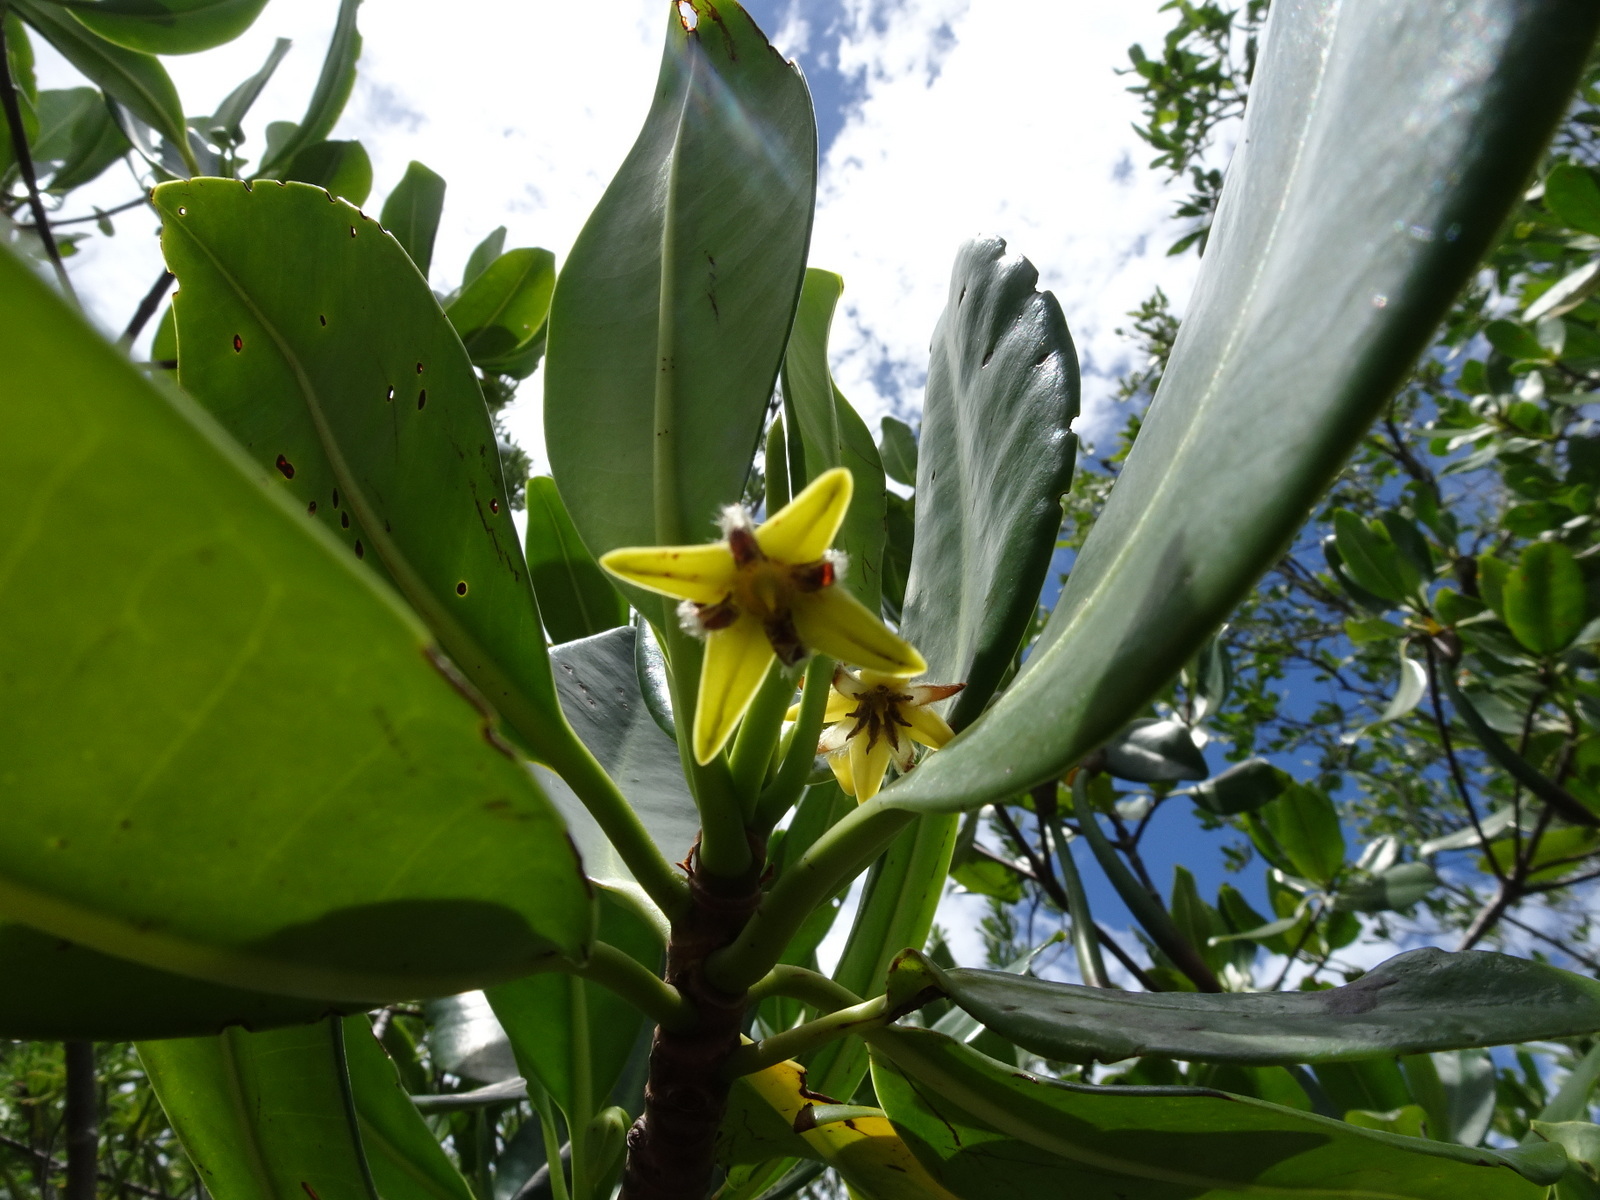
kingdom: Plantae
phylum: Tracheophyta
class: Magnoliopsida
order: Malpighiales
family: Rhizophoraceae
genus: Rhizophora
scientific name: Rhizophora mangle
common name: Red mangrove
